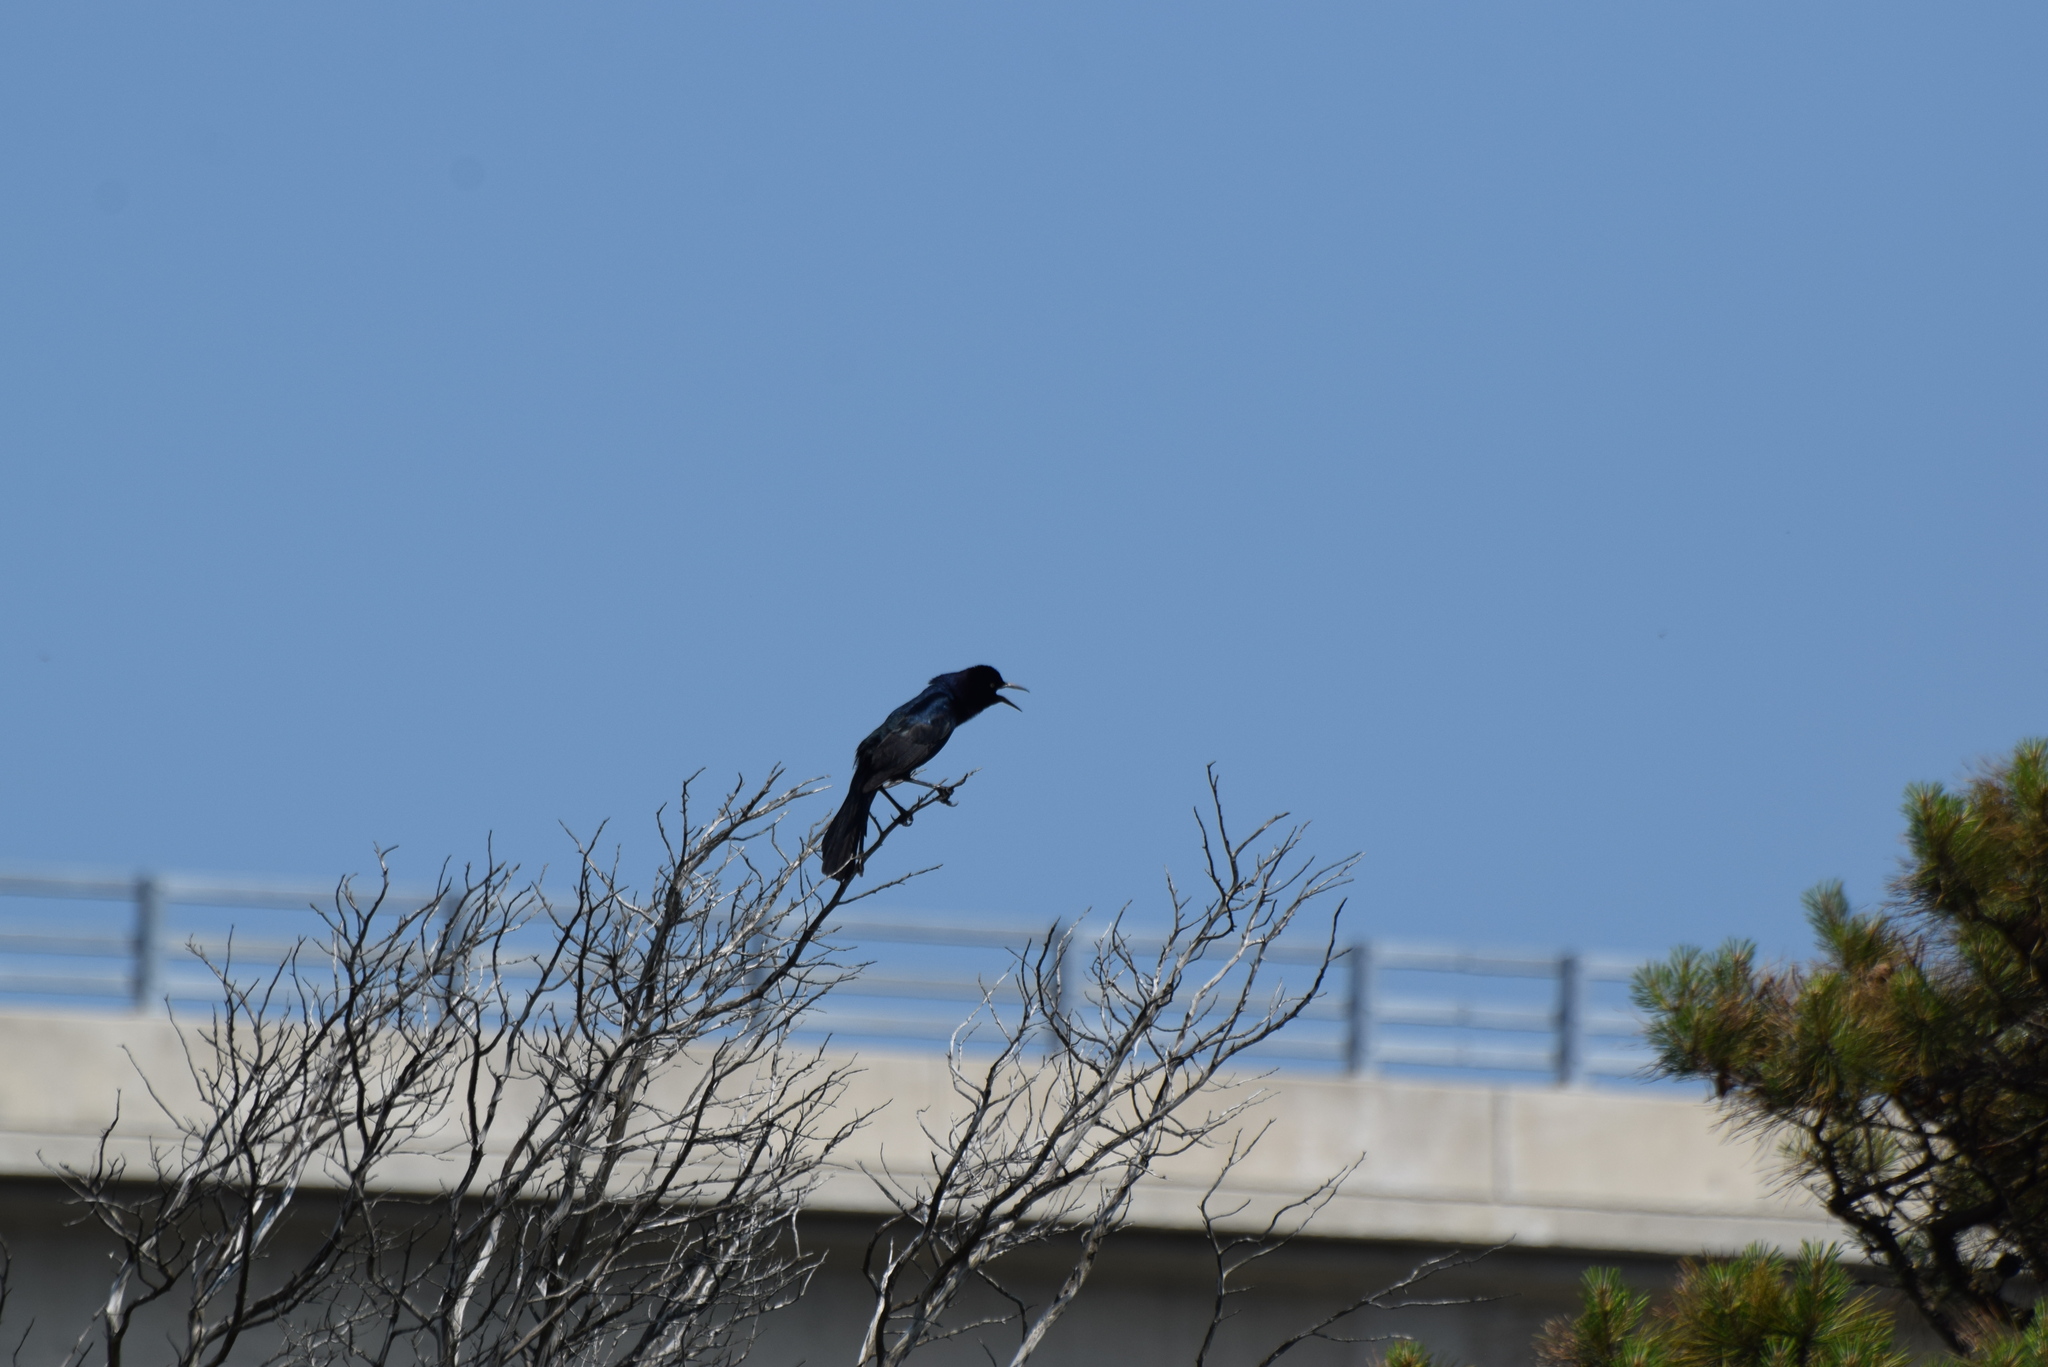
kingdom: Animalia
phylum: Chordata
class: Aves
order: Passeriformes
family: Icteridae
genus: Quiscalus
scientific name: Quiscalus major
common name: Boat-tailed grackle
